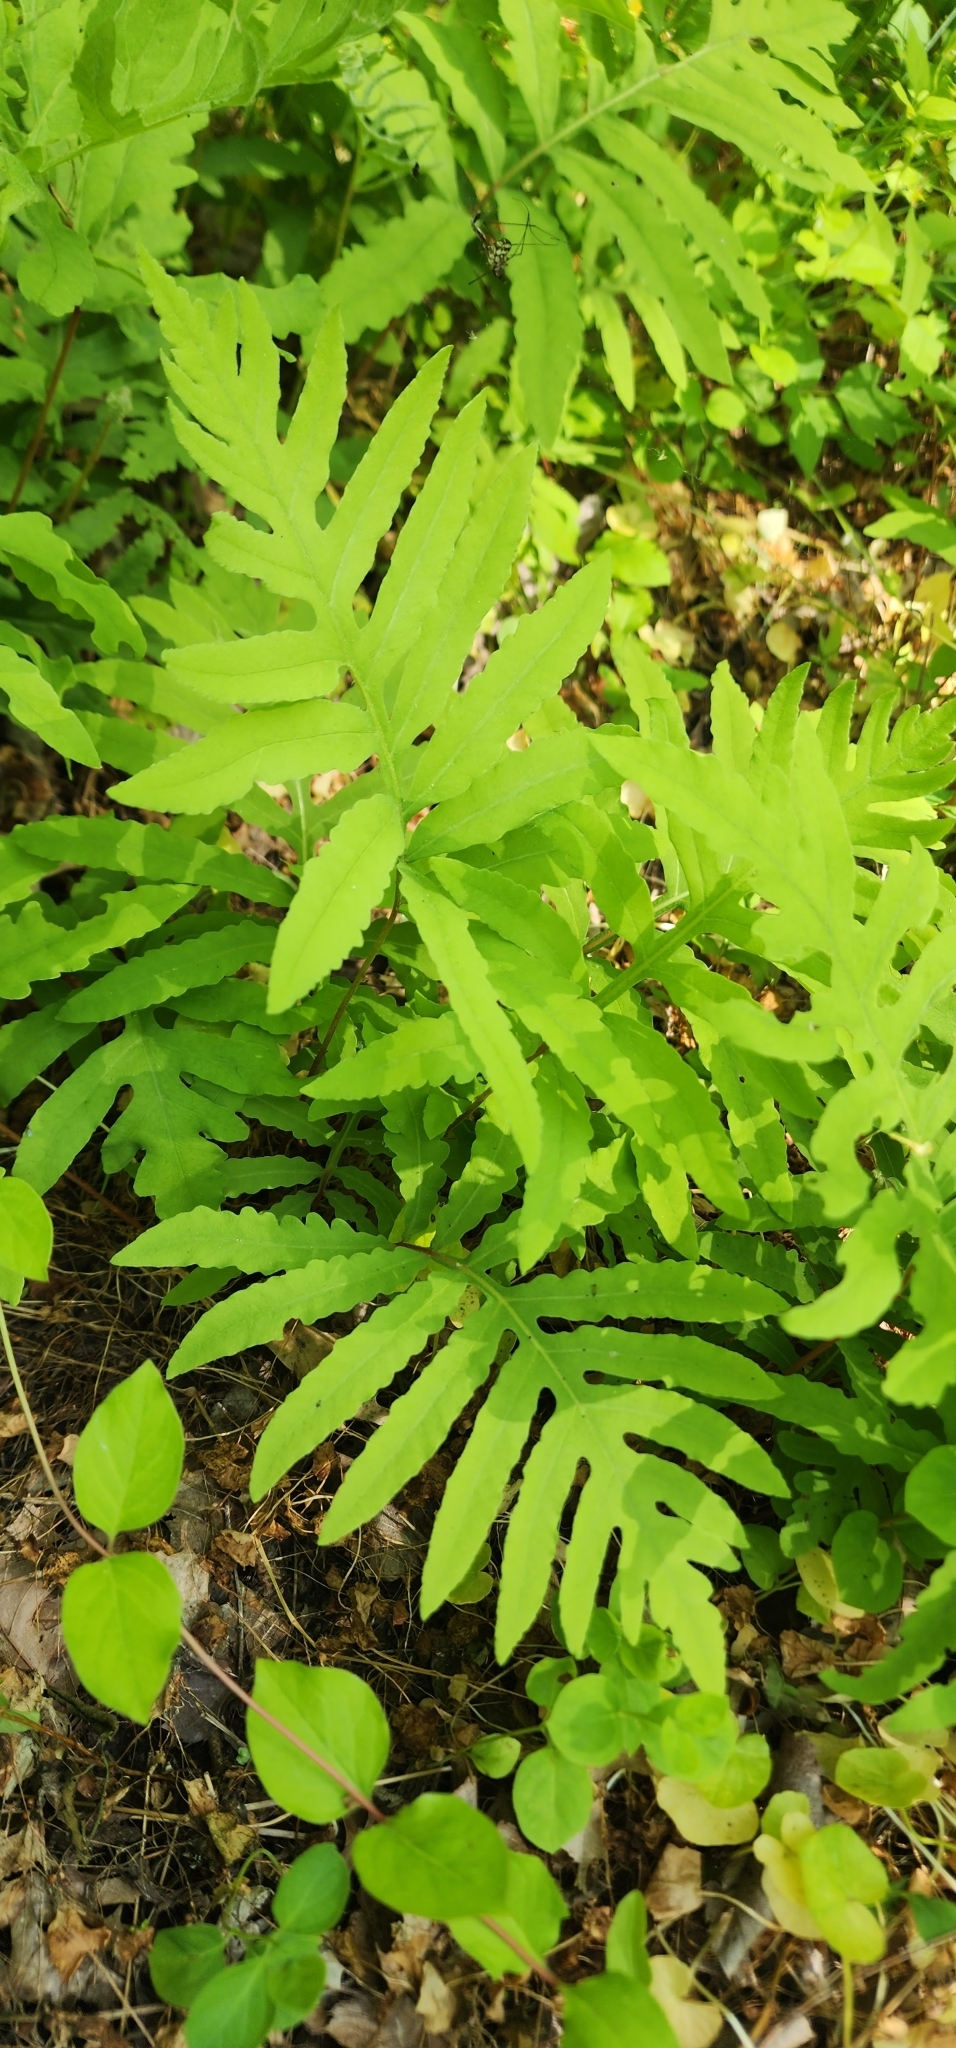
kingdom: Plantae
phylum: Tracheophyta
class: Polypodiopsida
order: Polypodiales
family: Onocleaceae
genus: Onoclea
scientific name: Onoclea sensibilis
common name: Sensitive fern
